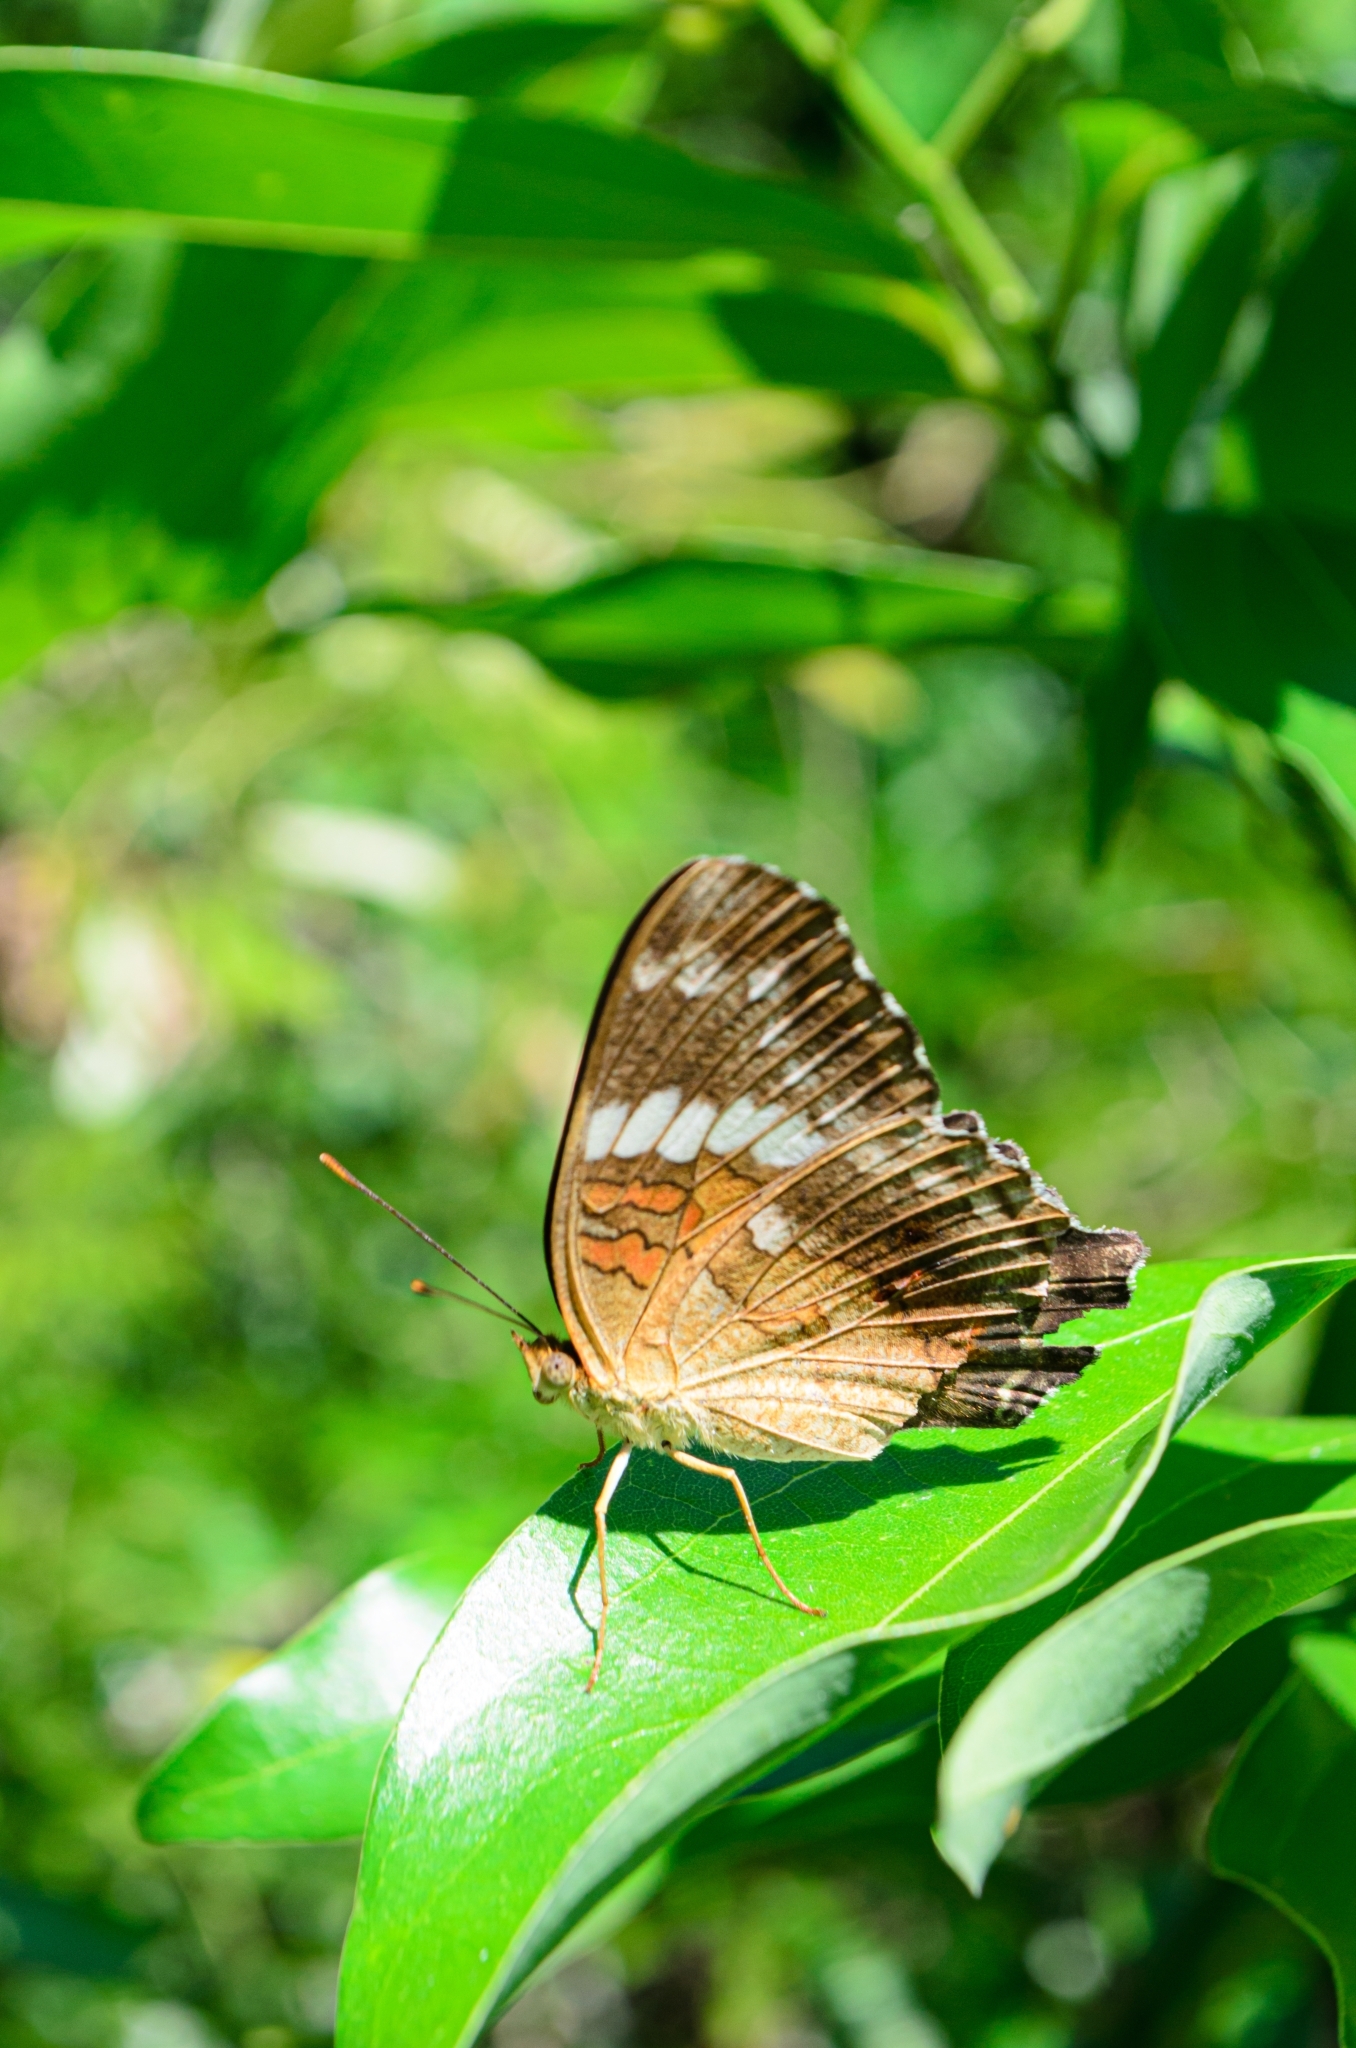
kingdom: Animalia
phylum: Arthropoda
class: Insecta
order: Lepidoptera
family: Nymphalidae
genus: Anartia
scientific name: Anartia amathea
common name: Red peacock
